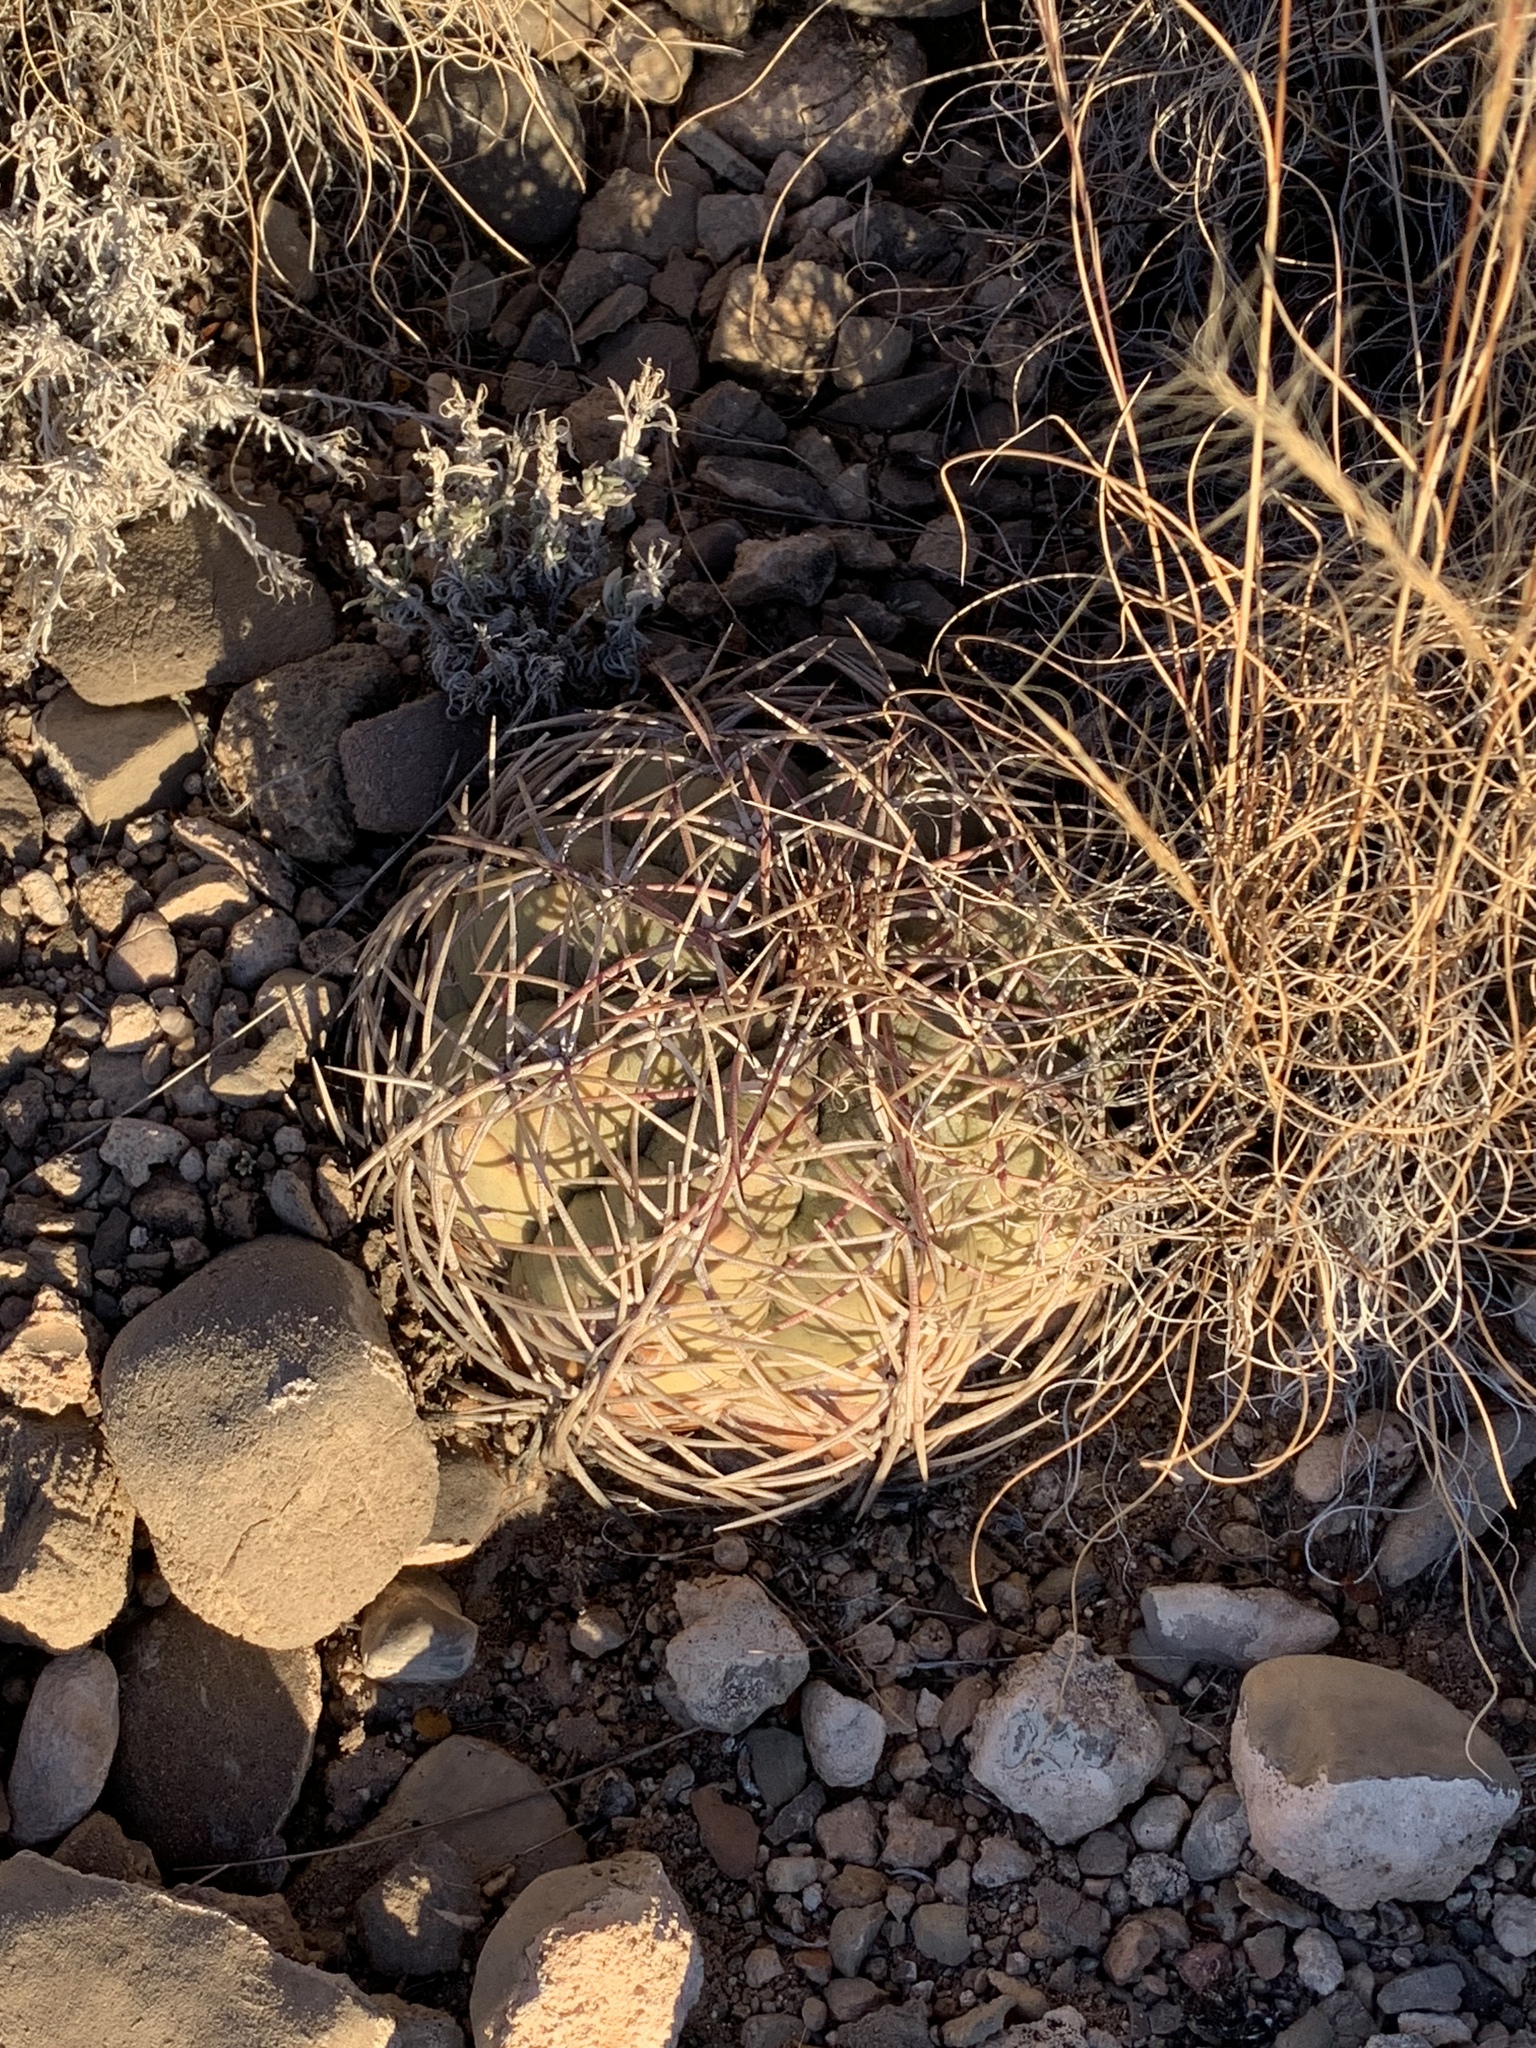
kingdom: Plantae
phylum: Tracheophyta
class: Magnoliopsida
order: Caryophyllales
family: Cactaceae
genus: Echinocactus
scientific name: Echinocactus horizonthalonius
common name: Devilshead
